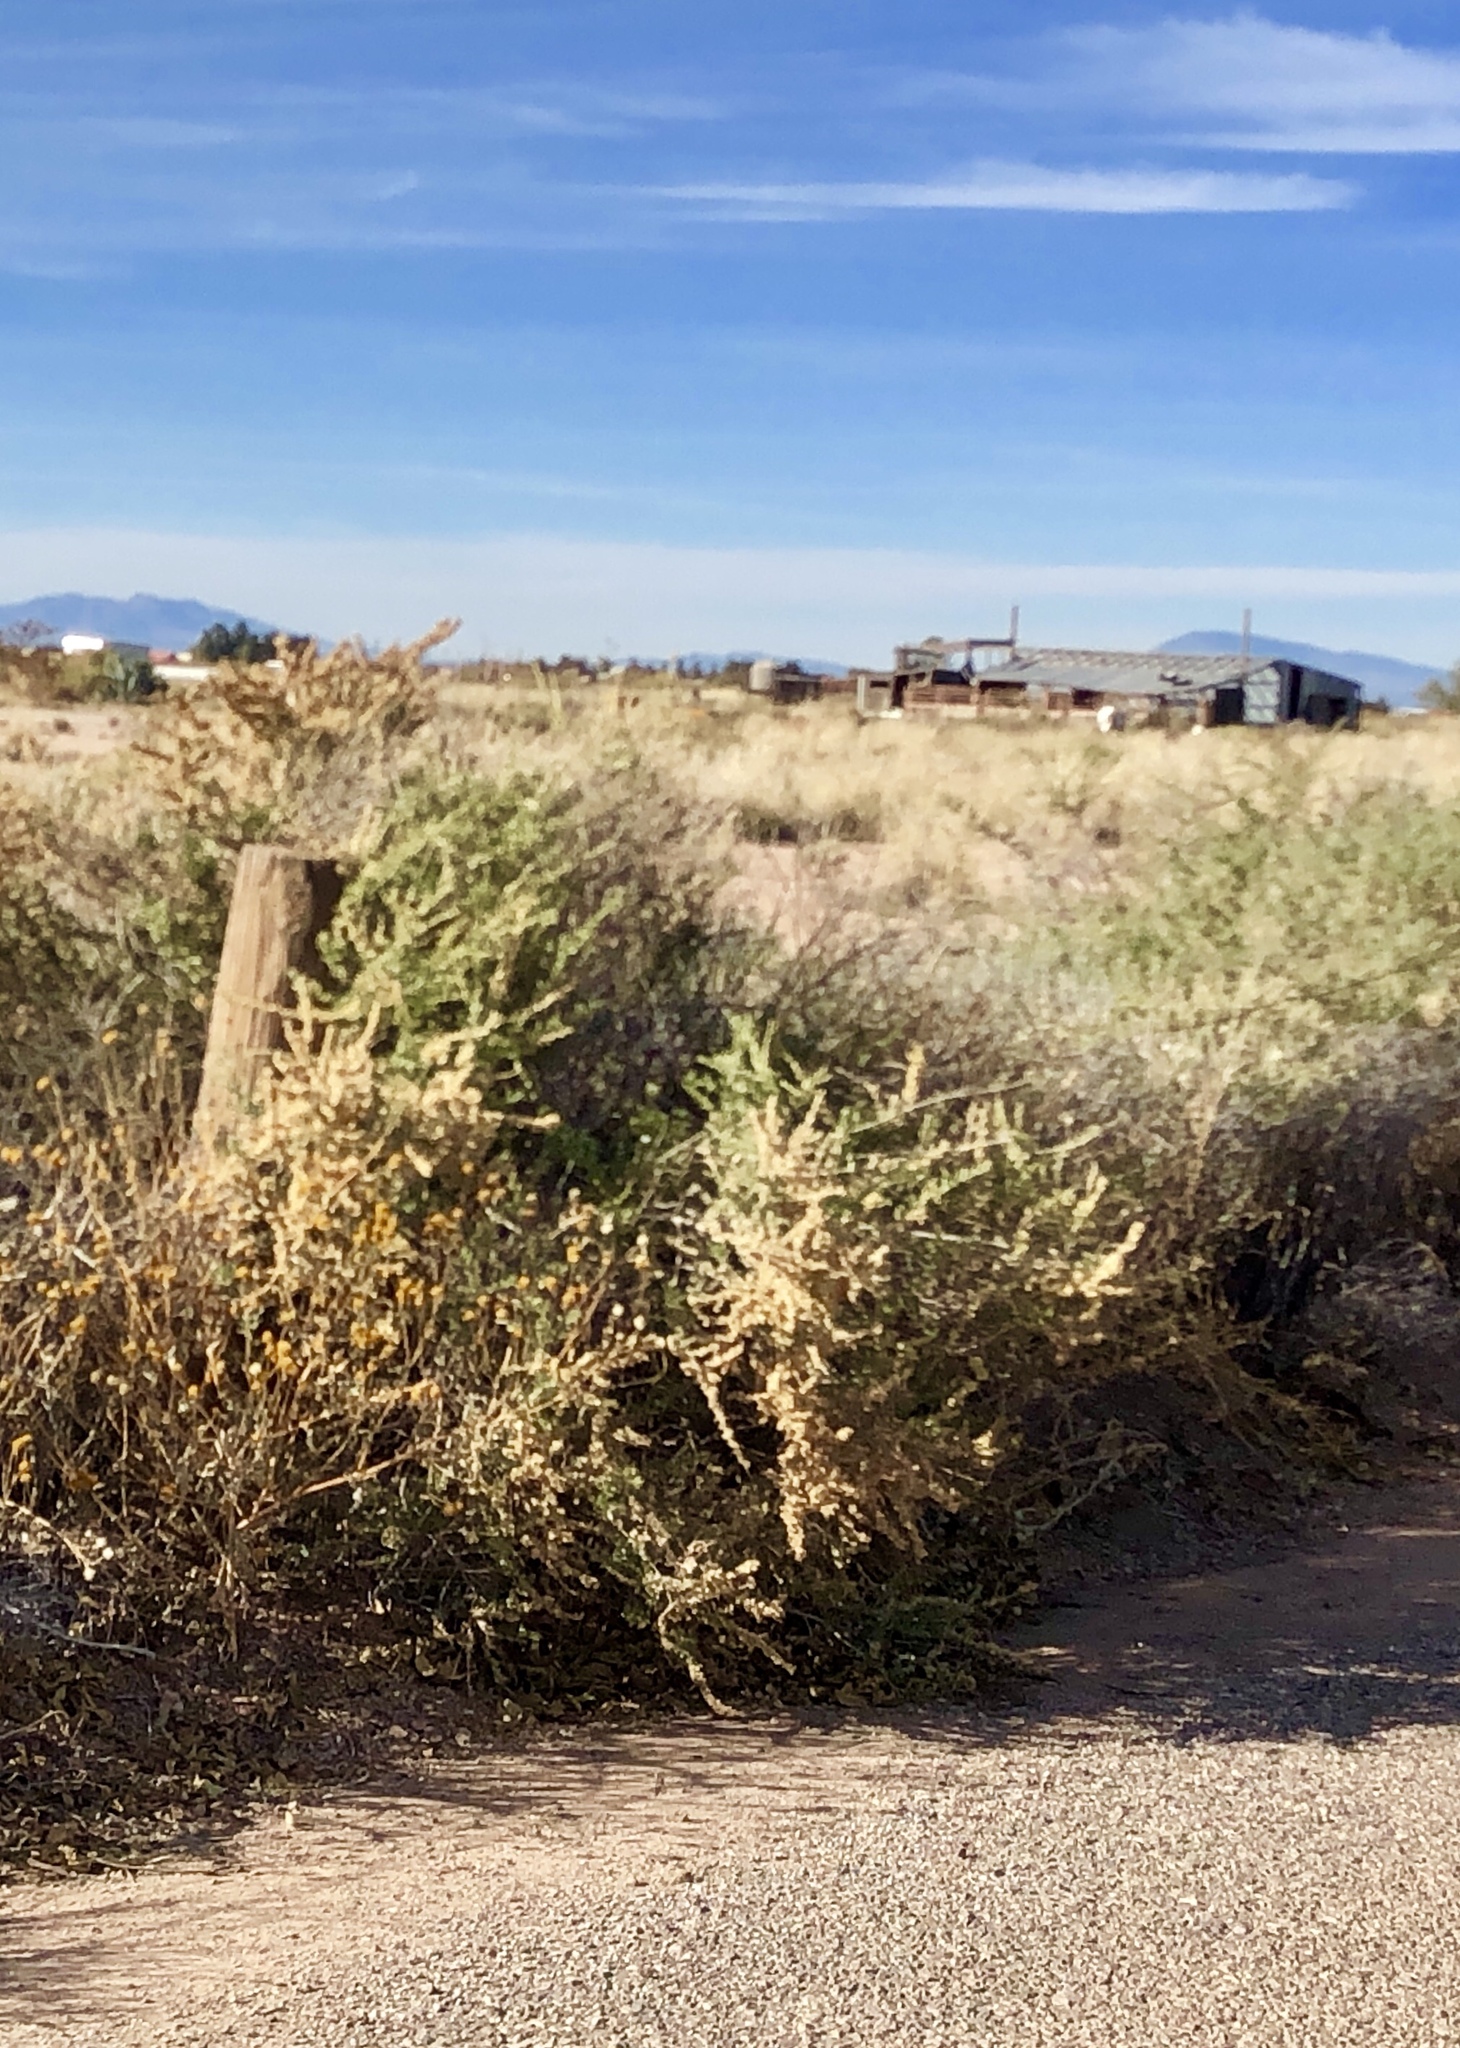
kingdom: Plantae
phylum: Tracheophyta
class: Magnoliopsida
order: Caryophyllales
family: Amaranthaceae
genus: Atriplex
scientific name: Atriplex canescens
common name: Four-wing saltbush
